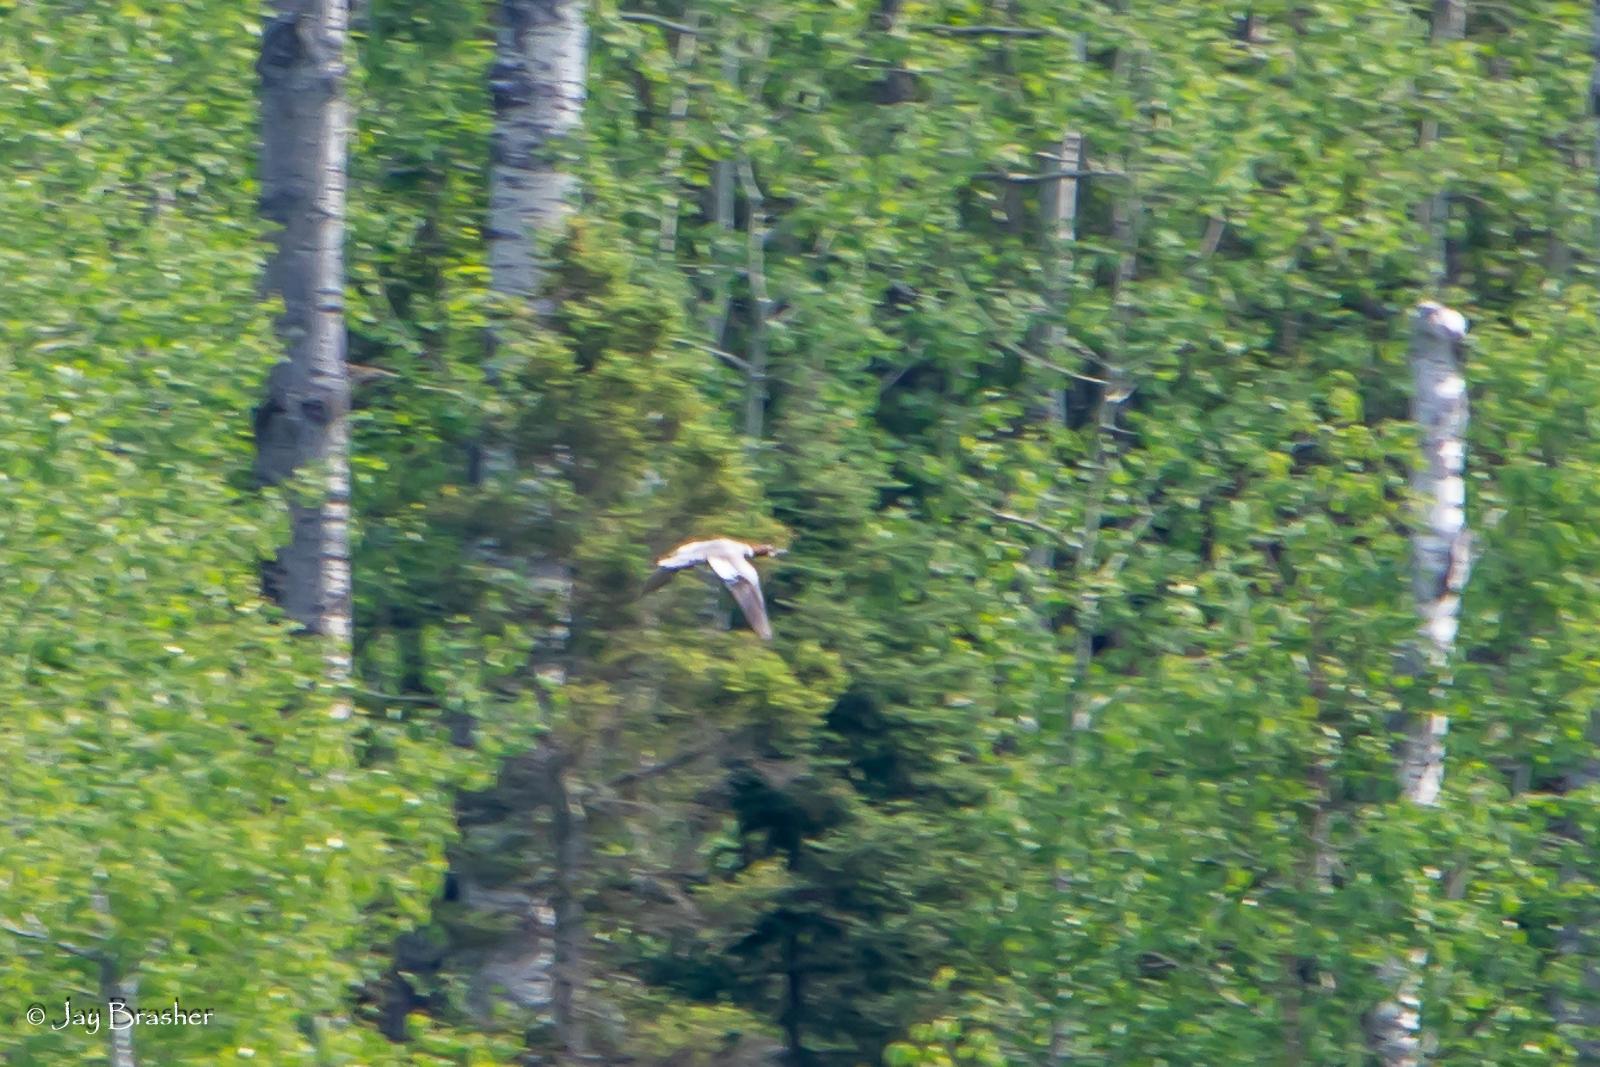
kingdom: Animalia
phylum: Chordata
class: Aves
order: Anseriformes
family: Anatidae
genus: Mergus
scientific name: Mergus merganser
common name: Common merganser
